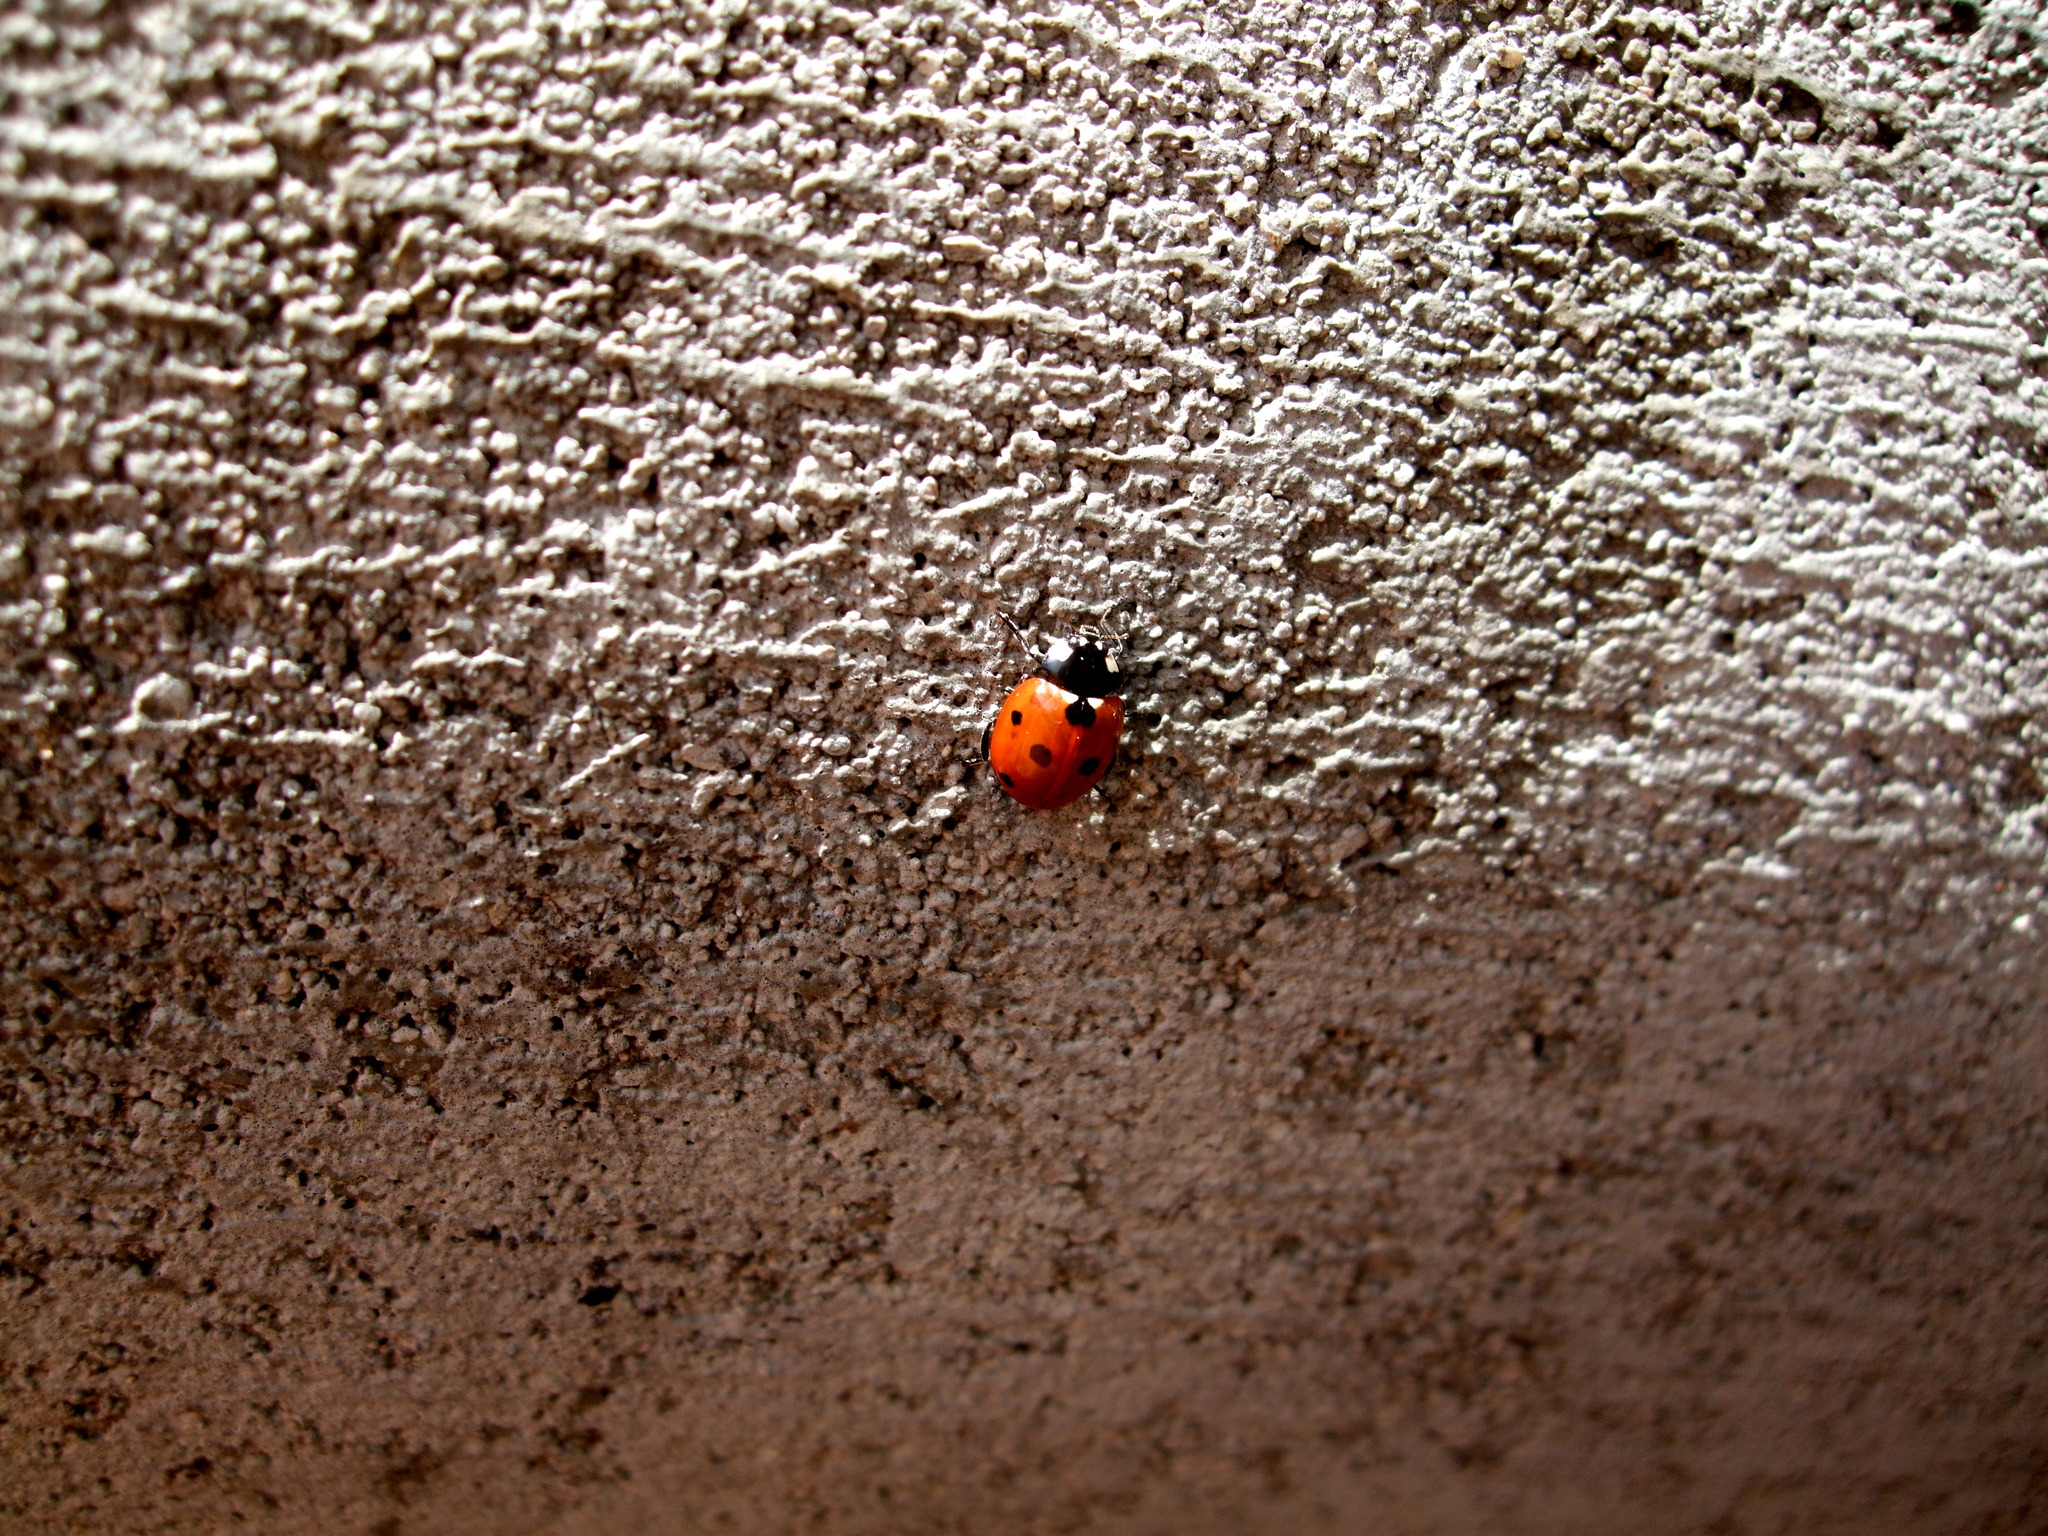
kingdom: Animalia
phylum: Arthropoda
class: Insecta
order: Coleoptera
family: Coccinellidae
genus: Coccinella
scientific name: Coccinella septempunctata
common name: Sevenspotted lady beetle
